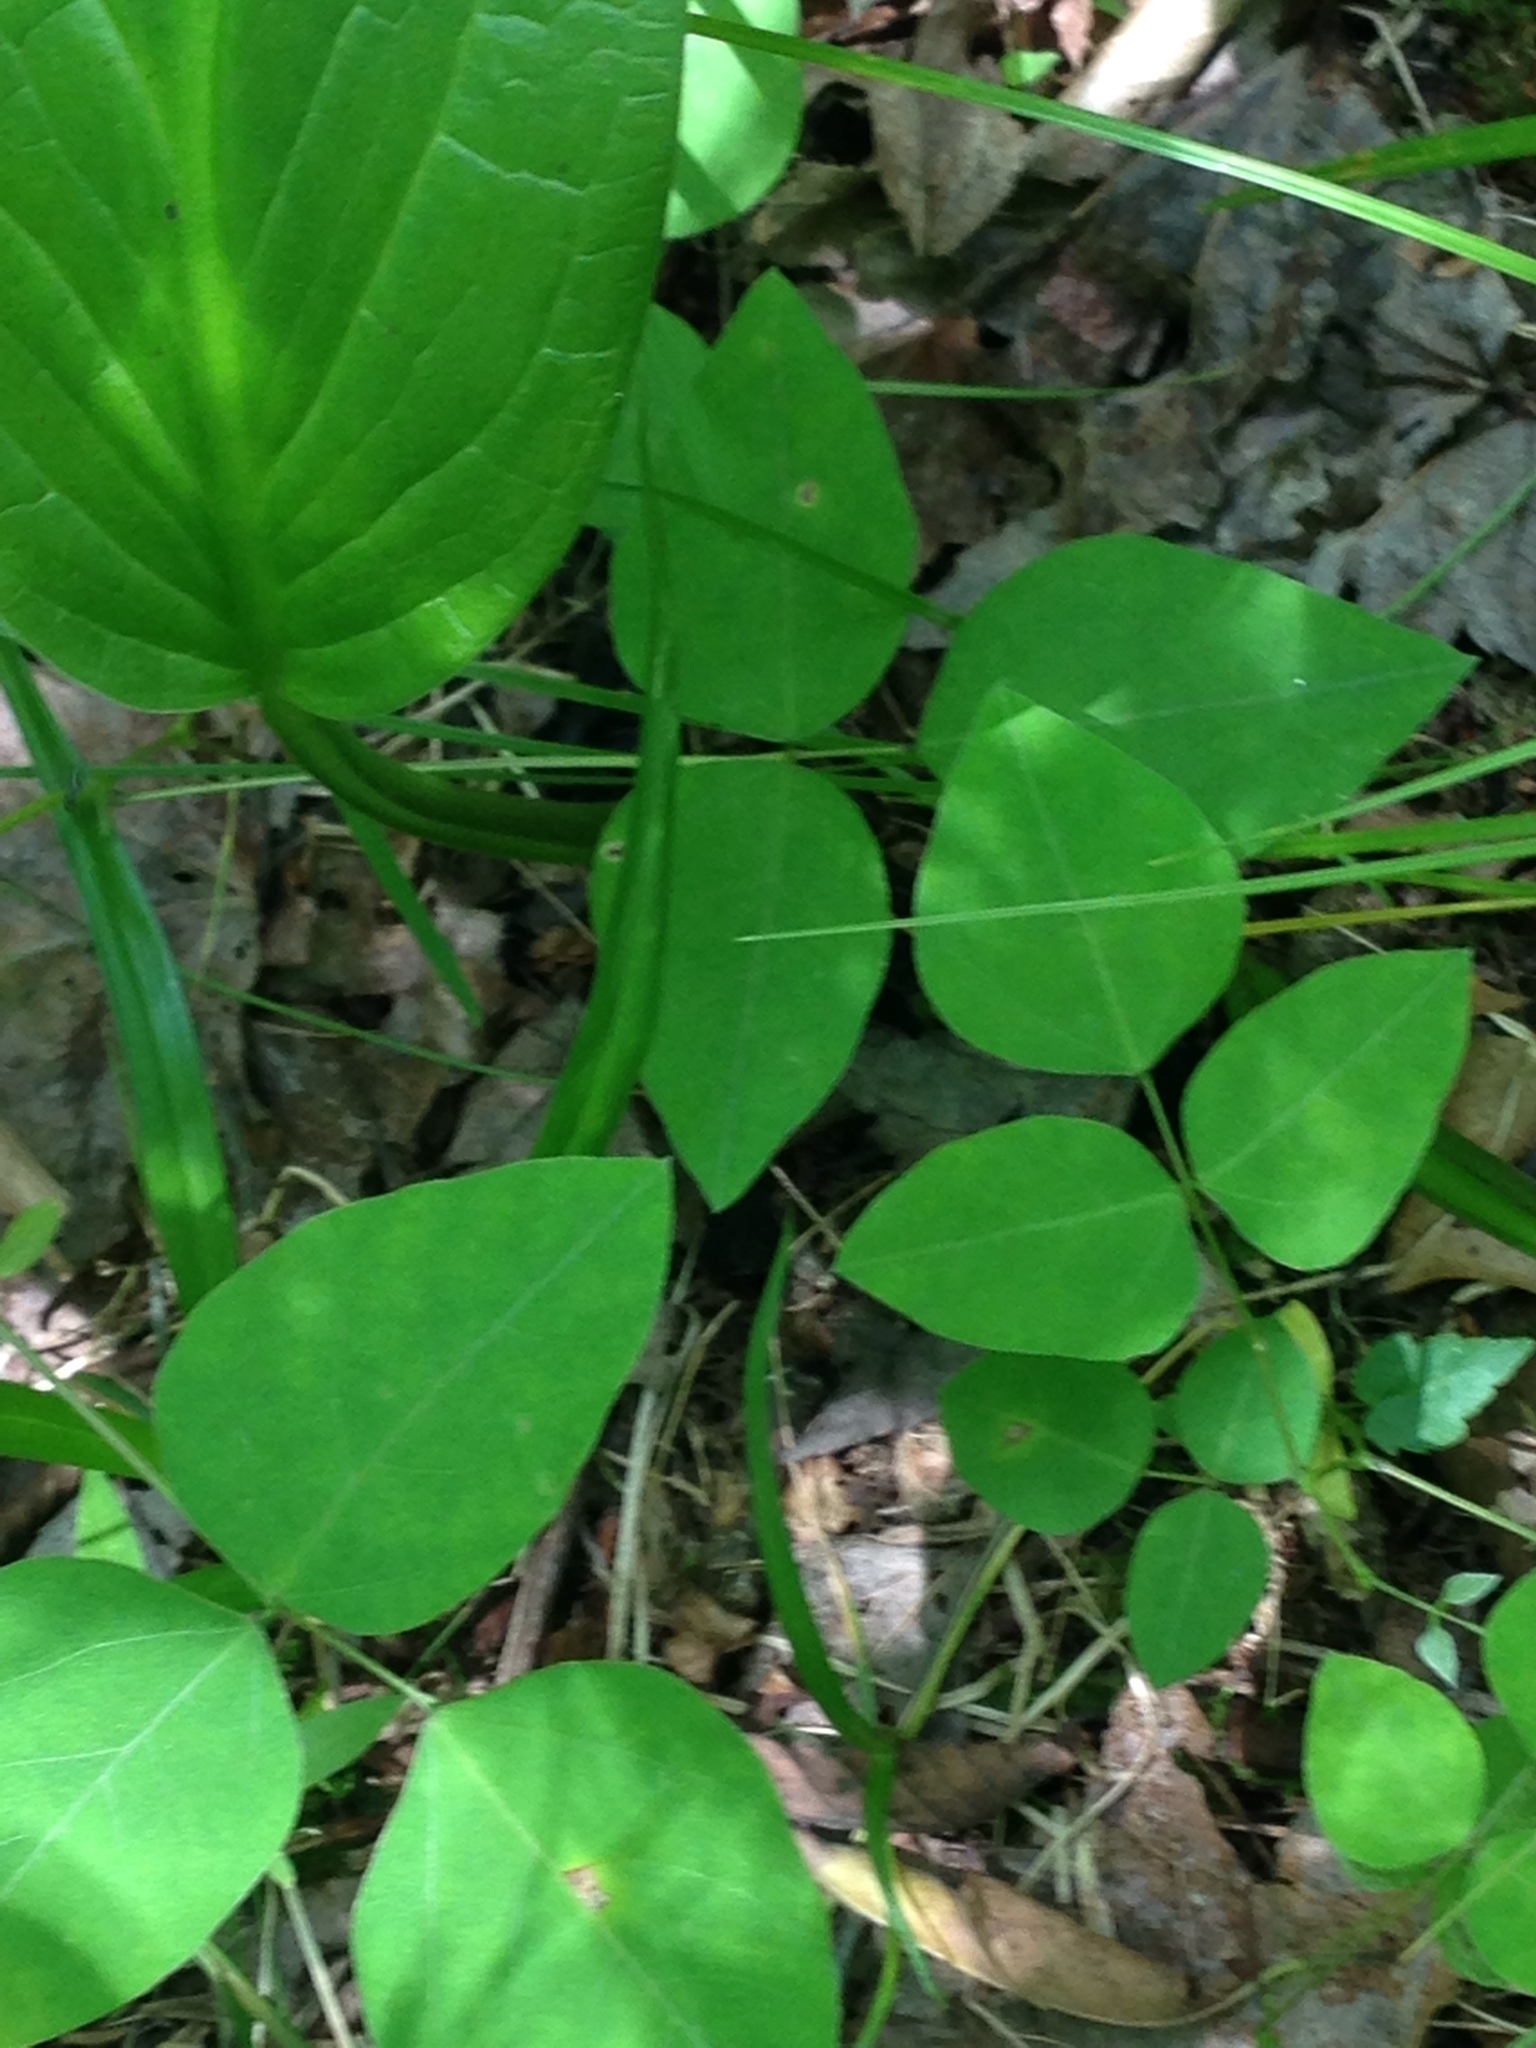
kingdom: Plantae
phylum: Tracheophyta
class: Magnoliopsida
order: Fabales
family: Fabaceae
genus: Amphicarpaea
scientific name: Amphicarpaea bracteata
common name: American hog peanut
